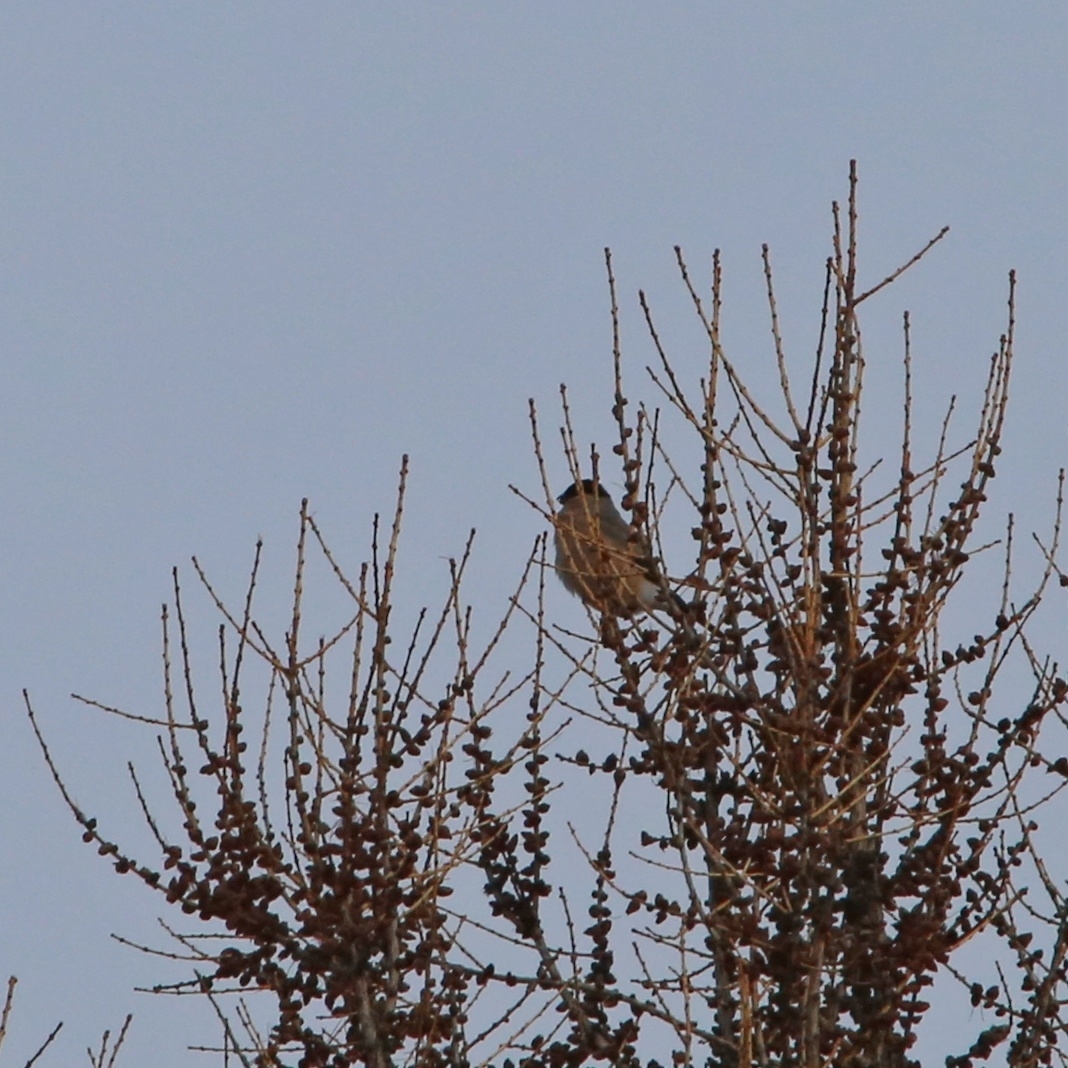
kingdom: Animalia
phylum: Chordata
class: Aves
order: Passeriformes
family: Fringillidae
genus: Pyrrhula
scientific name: Pyrrhula pyrrhula
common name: Eurasian bullfinch
